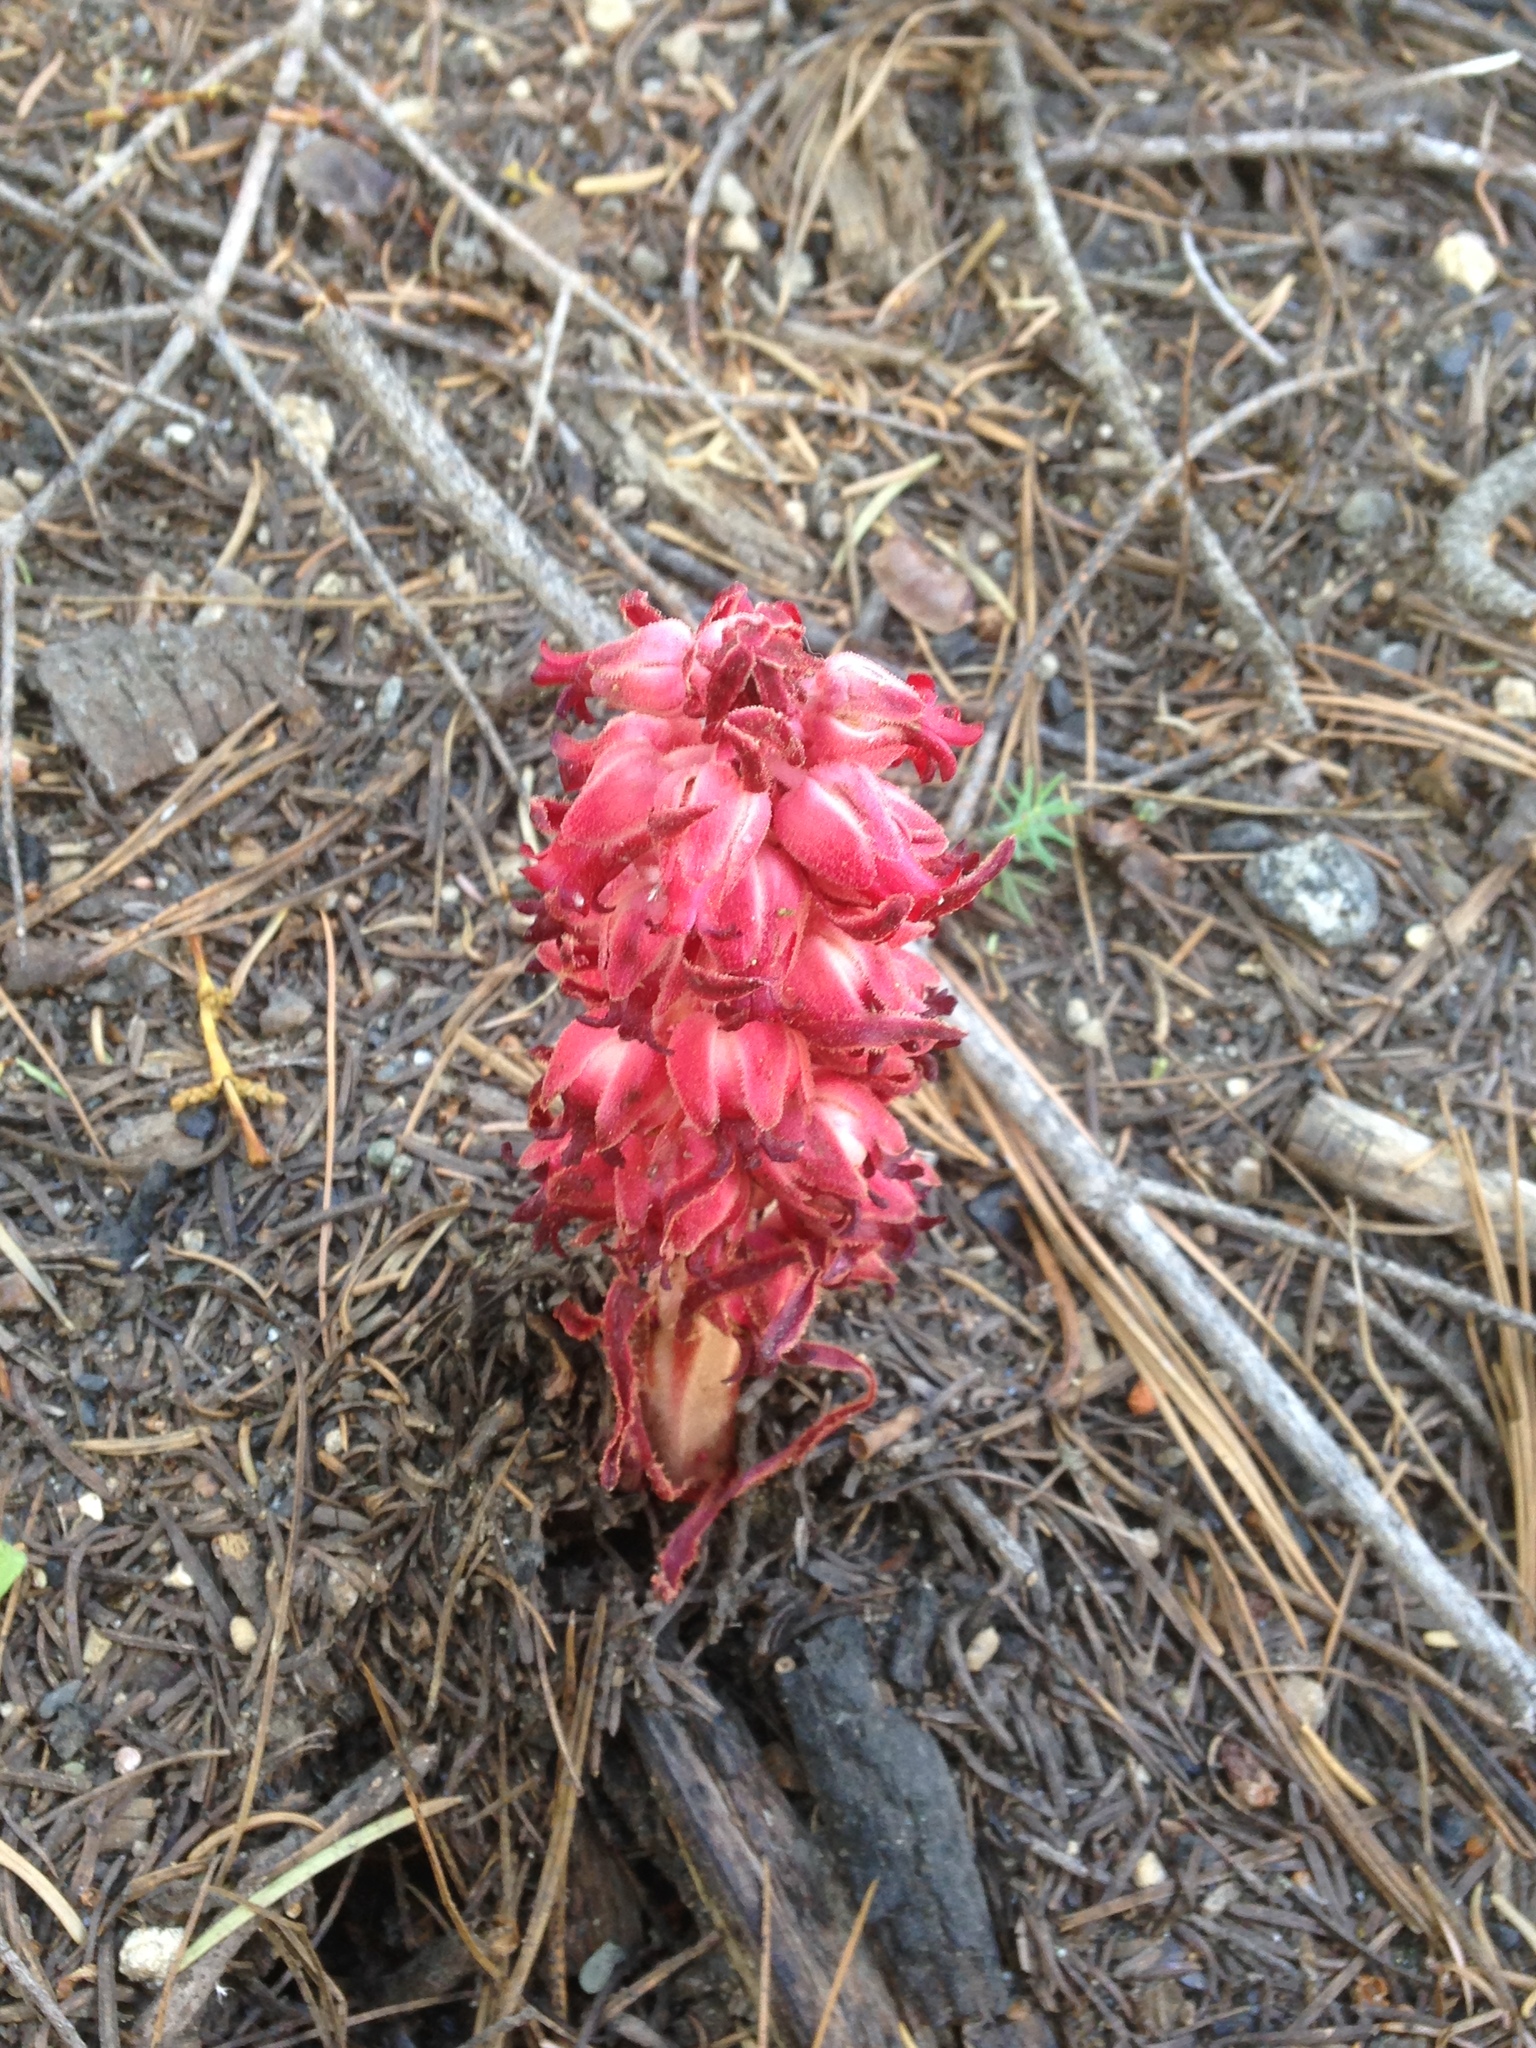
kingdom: Plantae
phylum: Tracheophyta
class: Magnoliopsida
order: Ericales
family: Ericaceae
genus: Sarcodes
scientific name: Sarcodes sanguinea
